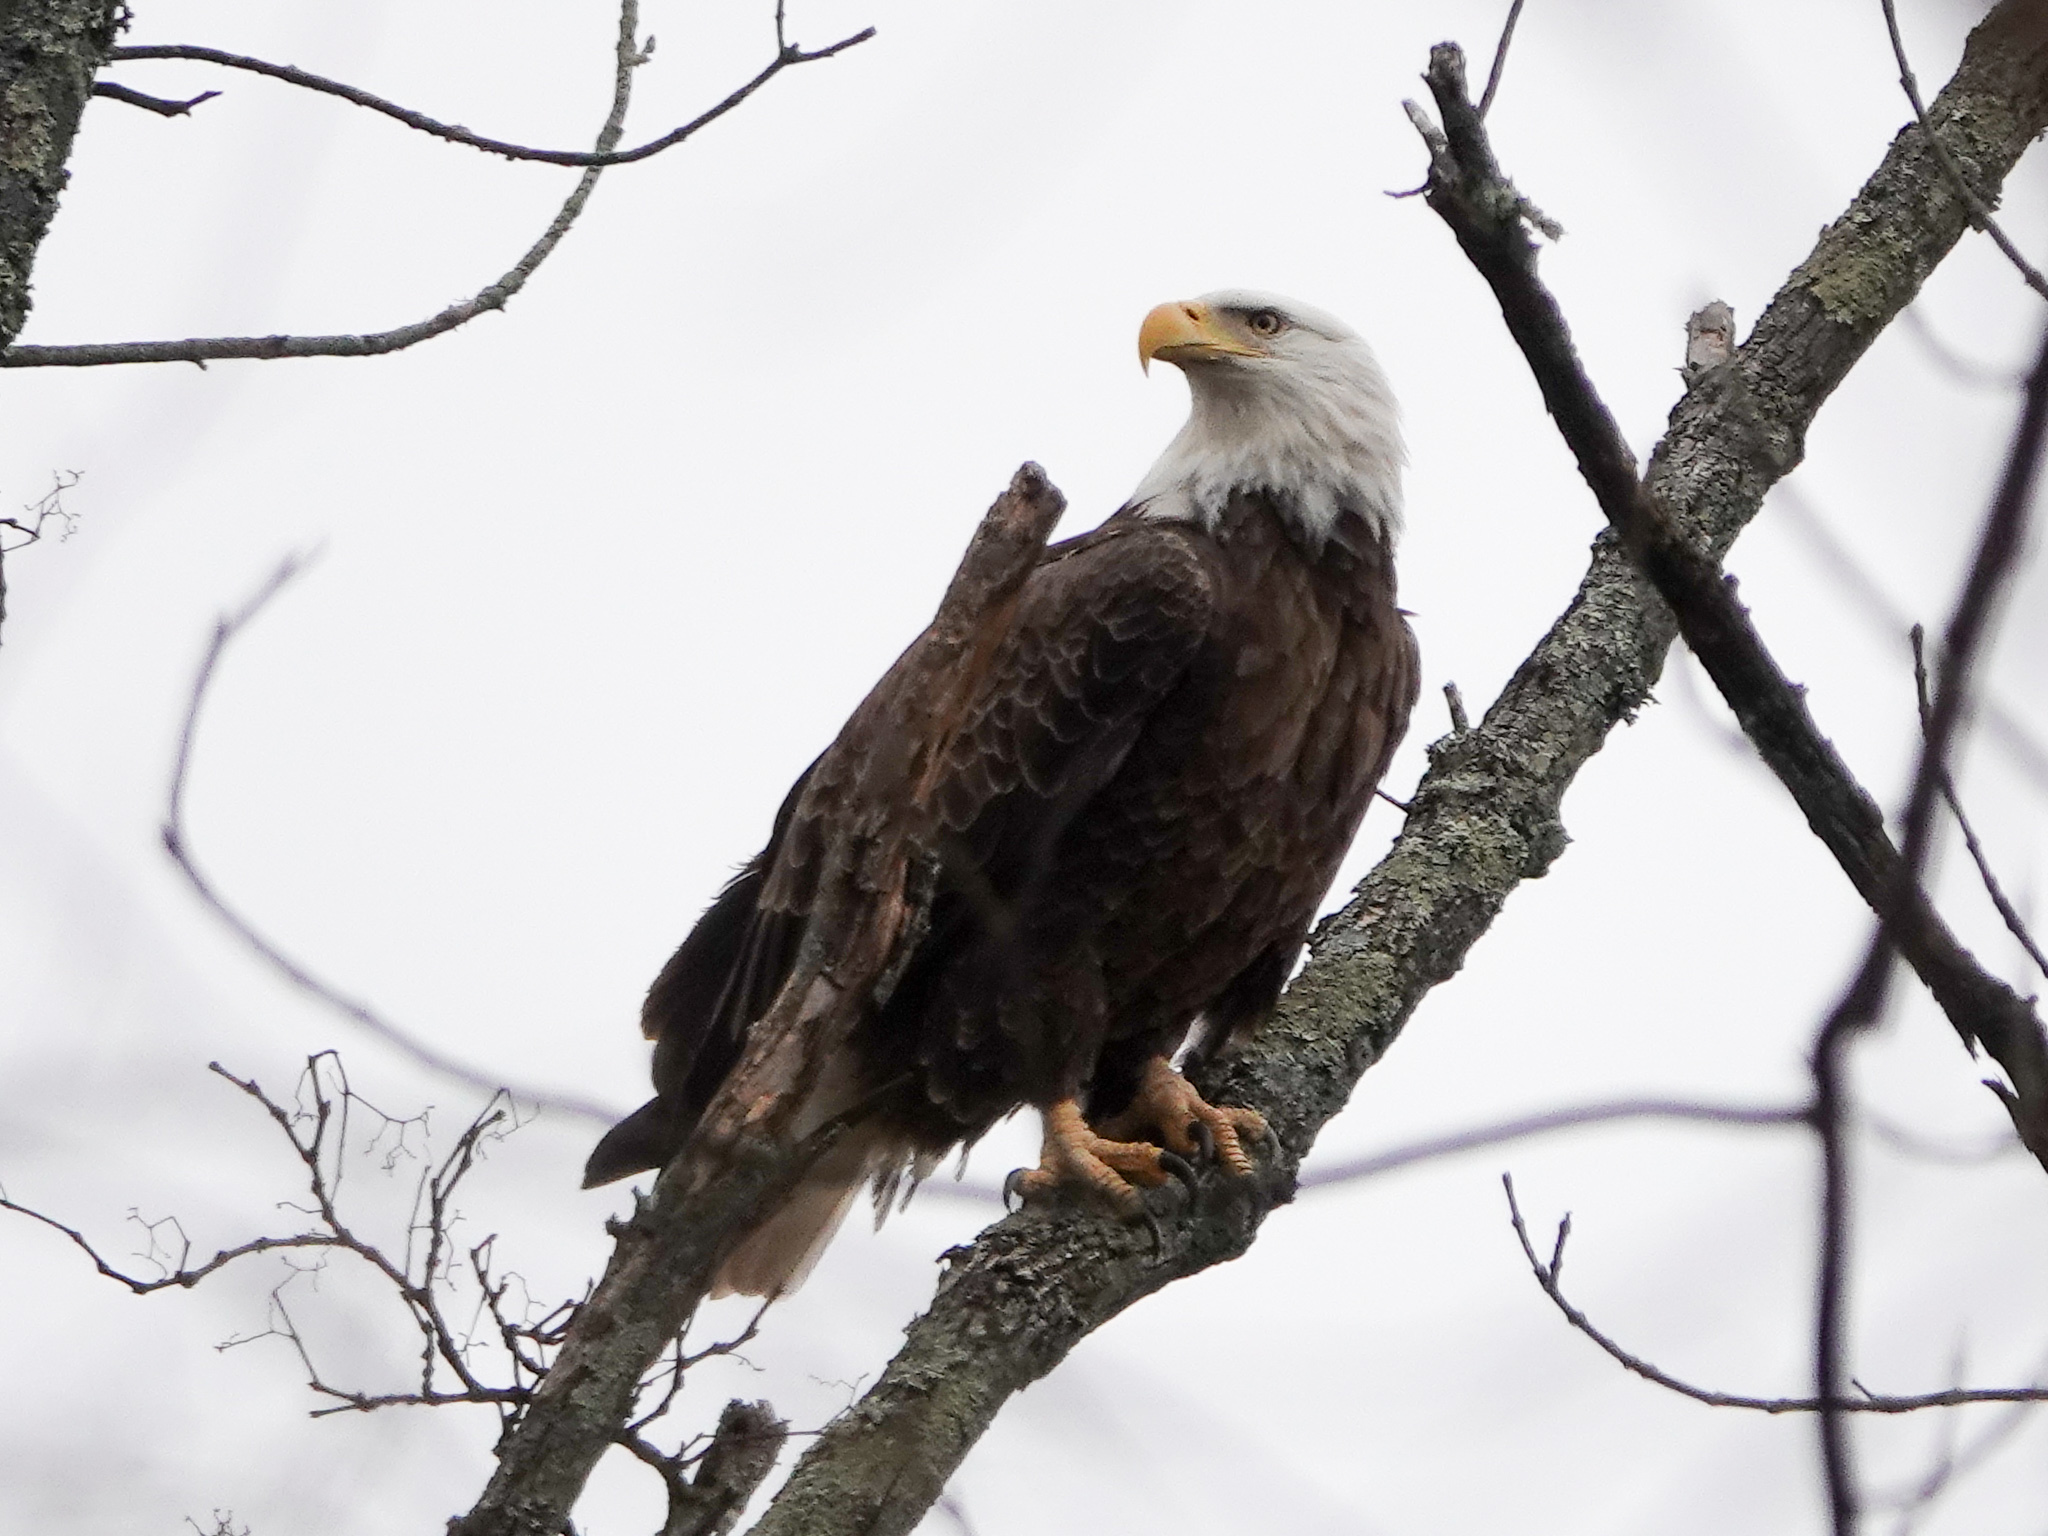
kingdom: Animalia
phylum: Chordata
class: Aves
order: Accipitriformes
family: Accipitridae
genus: Haliaeetus
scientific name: Haliaeetus leucocephalus
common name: Bald eagle
